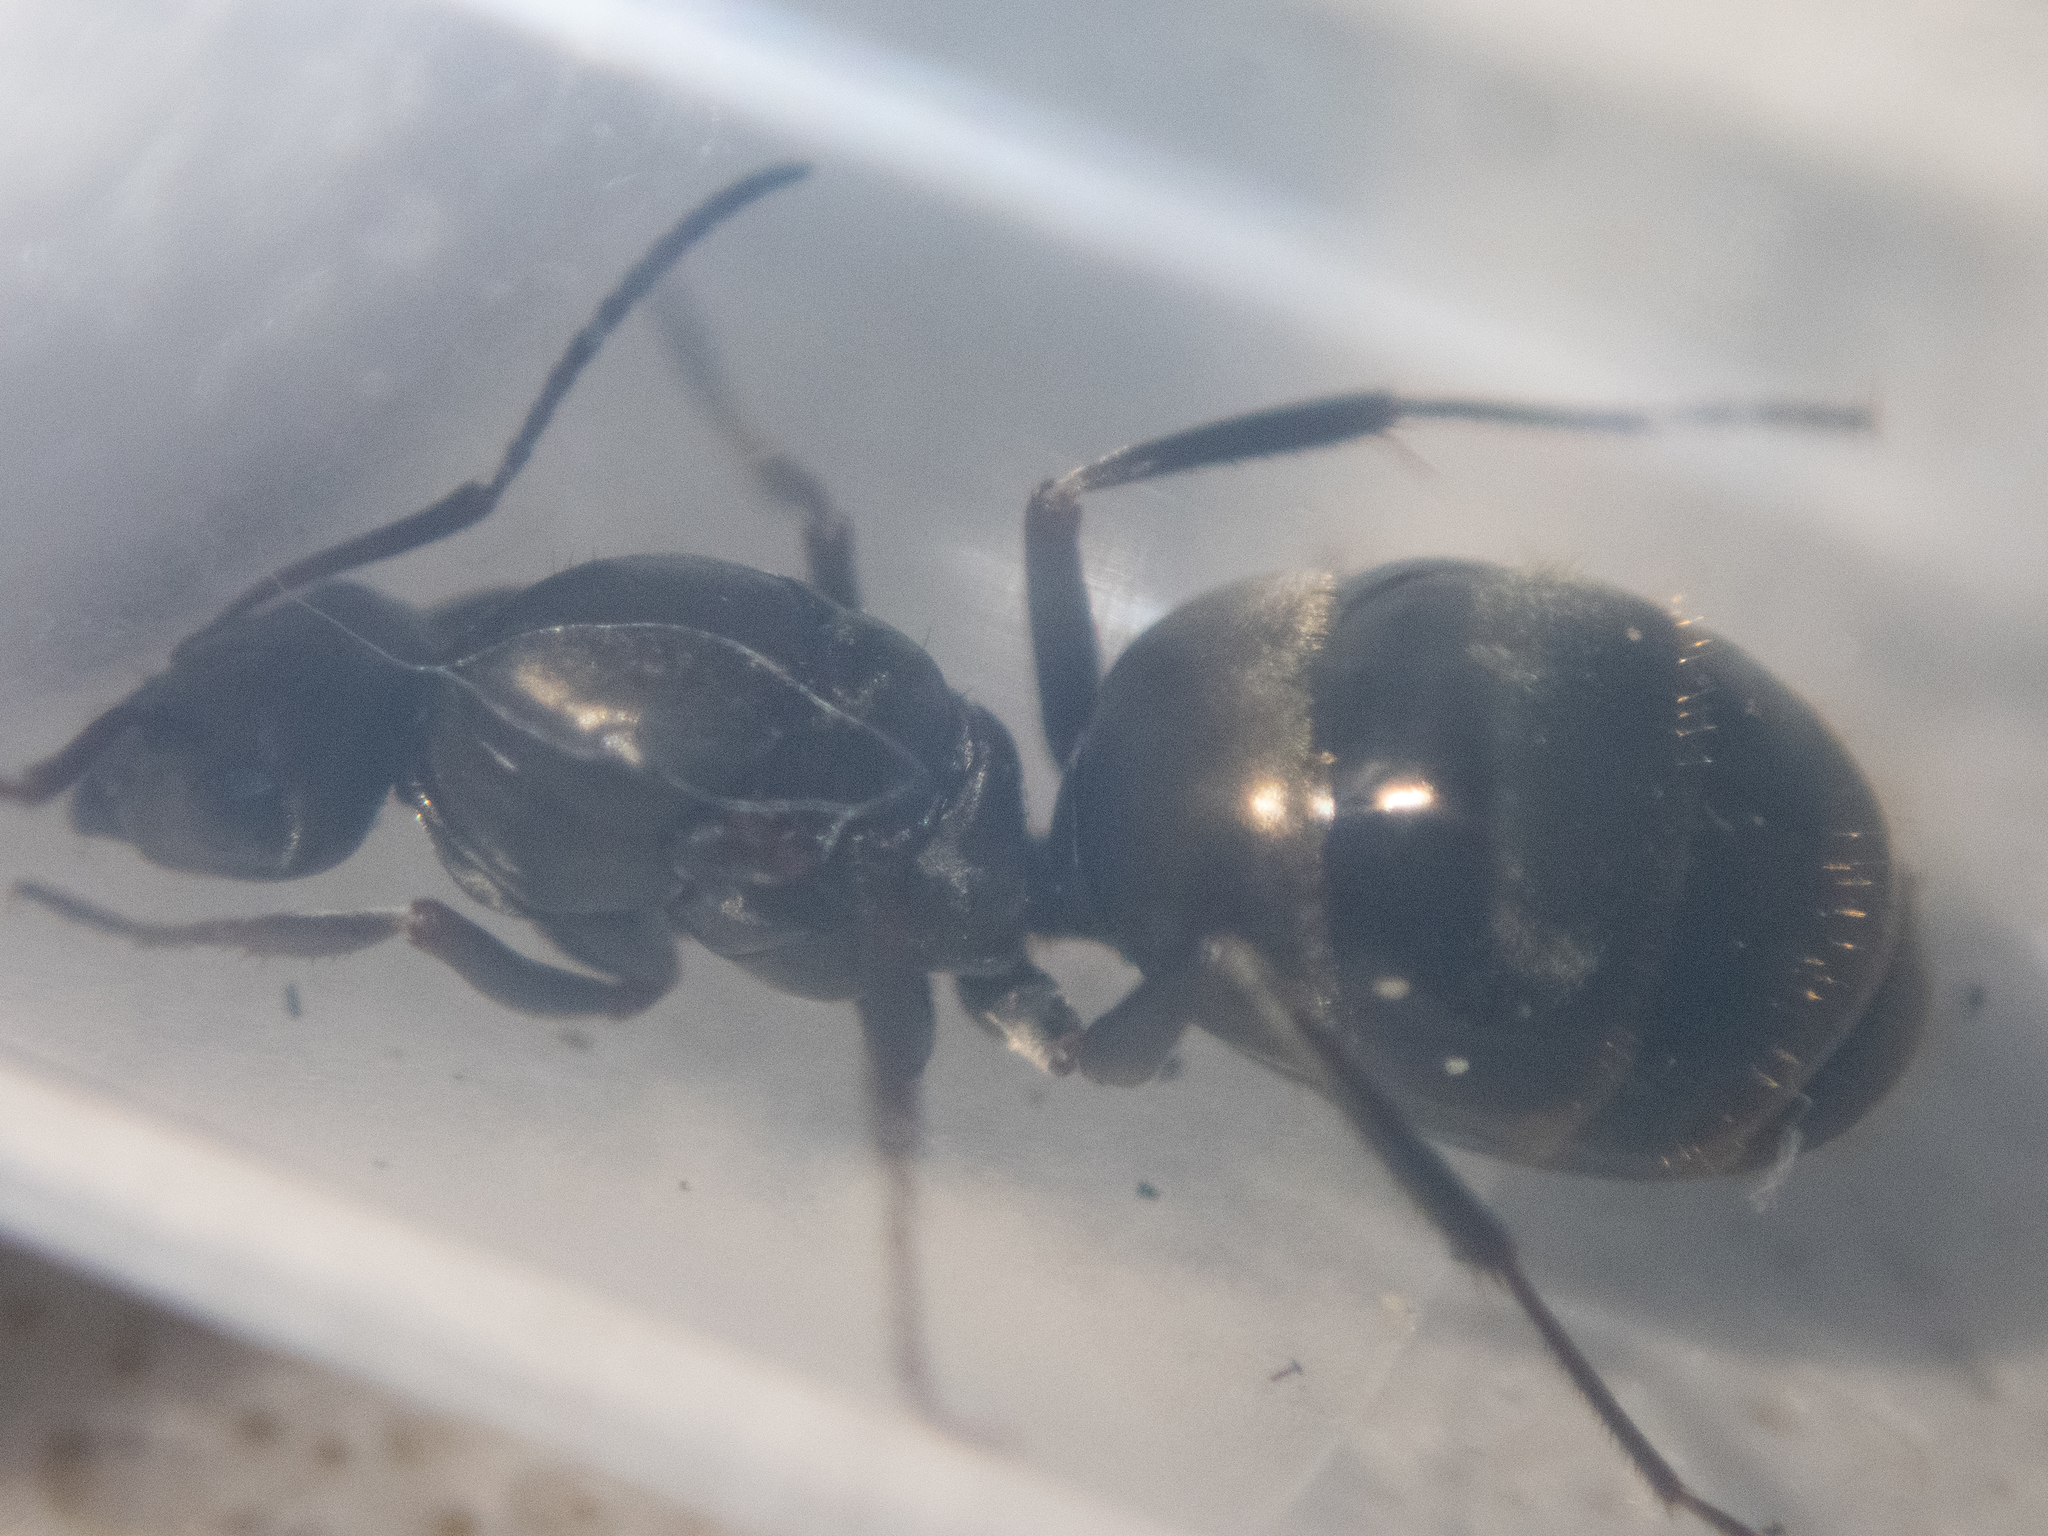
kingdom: Animalia
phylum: Arthropoda
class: Insecta
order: Hymenoptera
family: Formicidae
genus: Formica
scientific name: Formica subsericea
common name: Silky field ant
